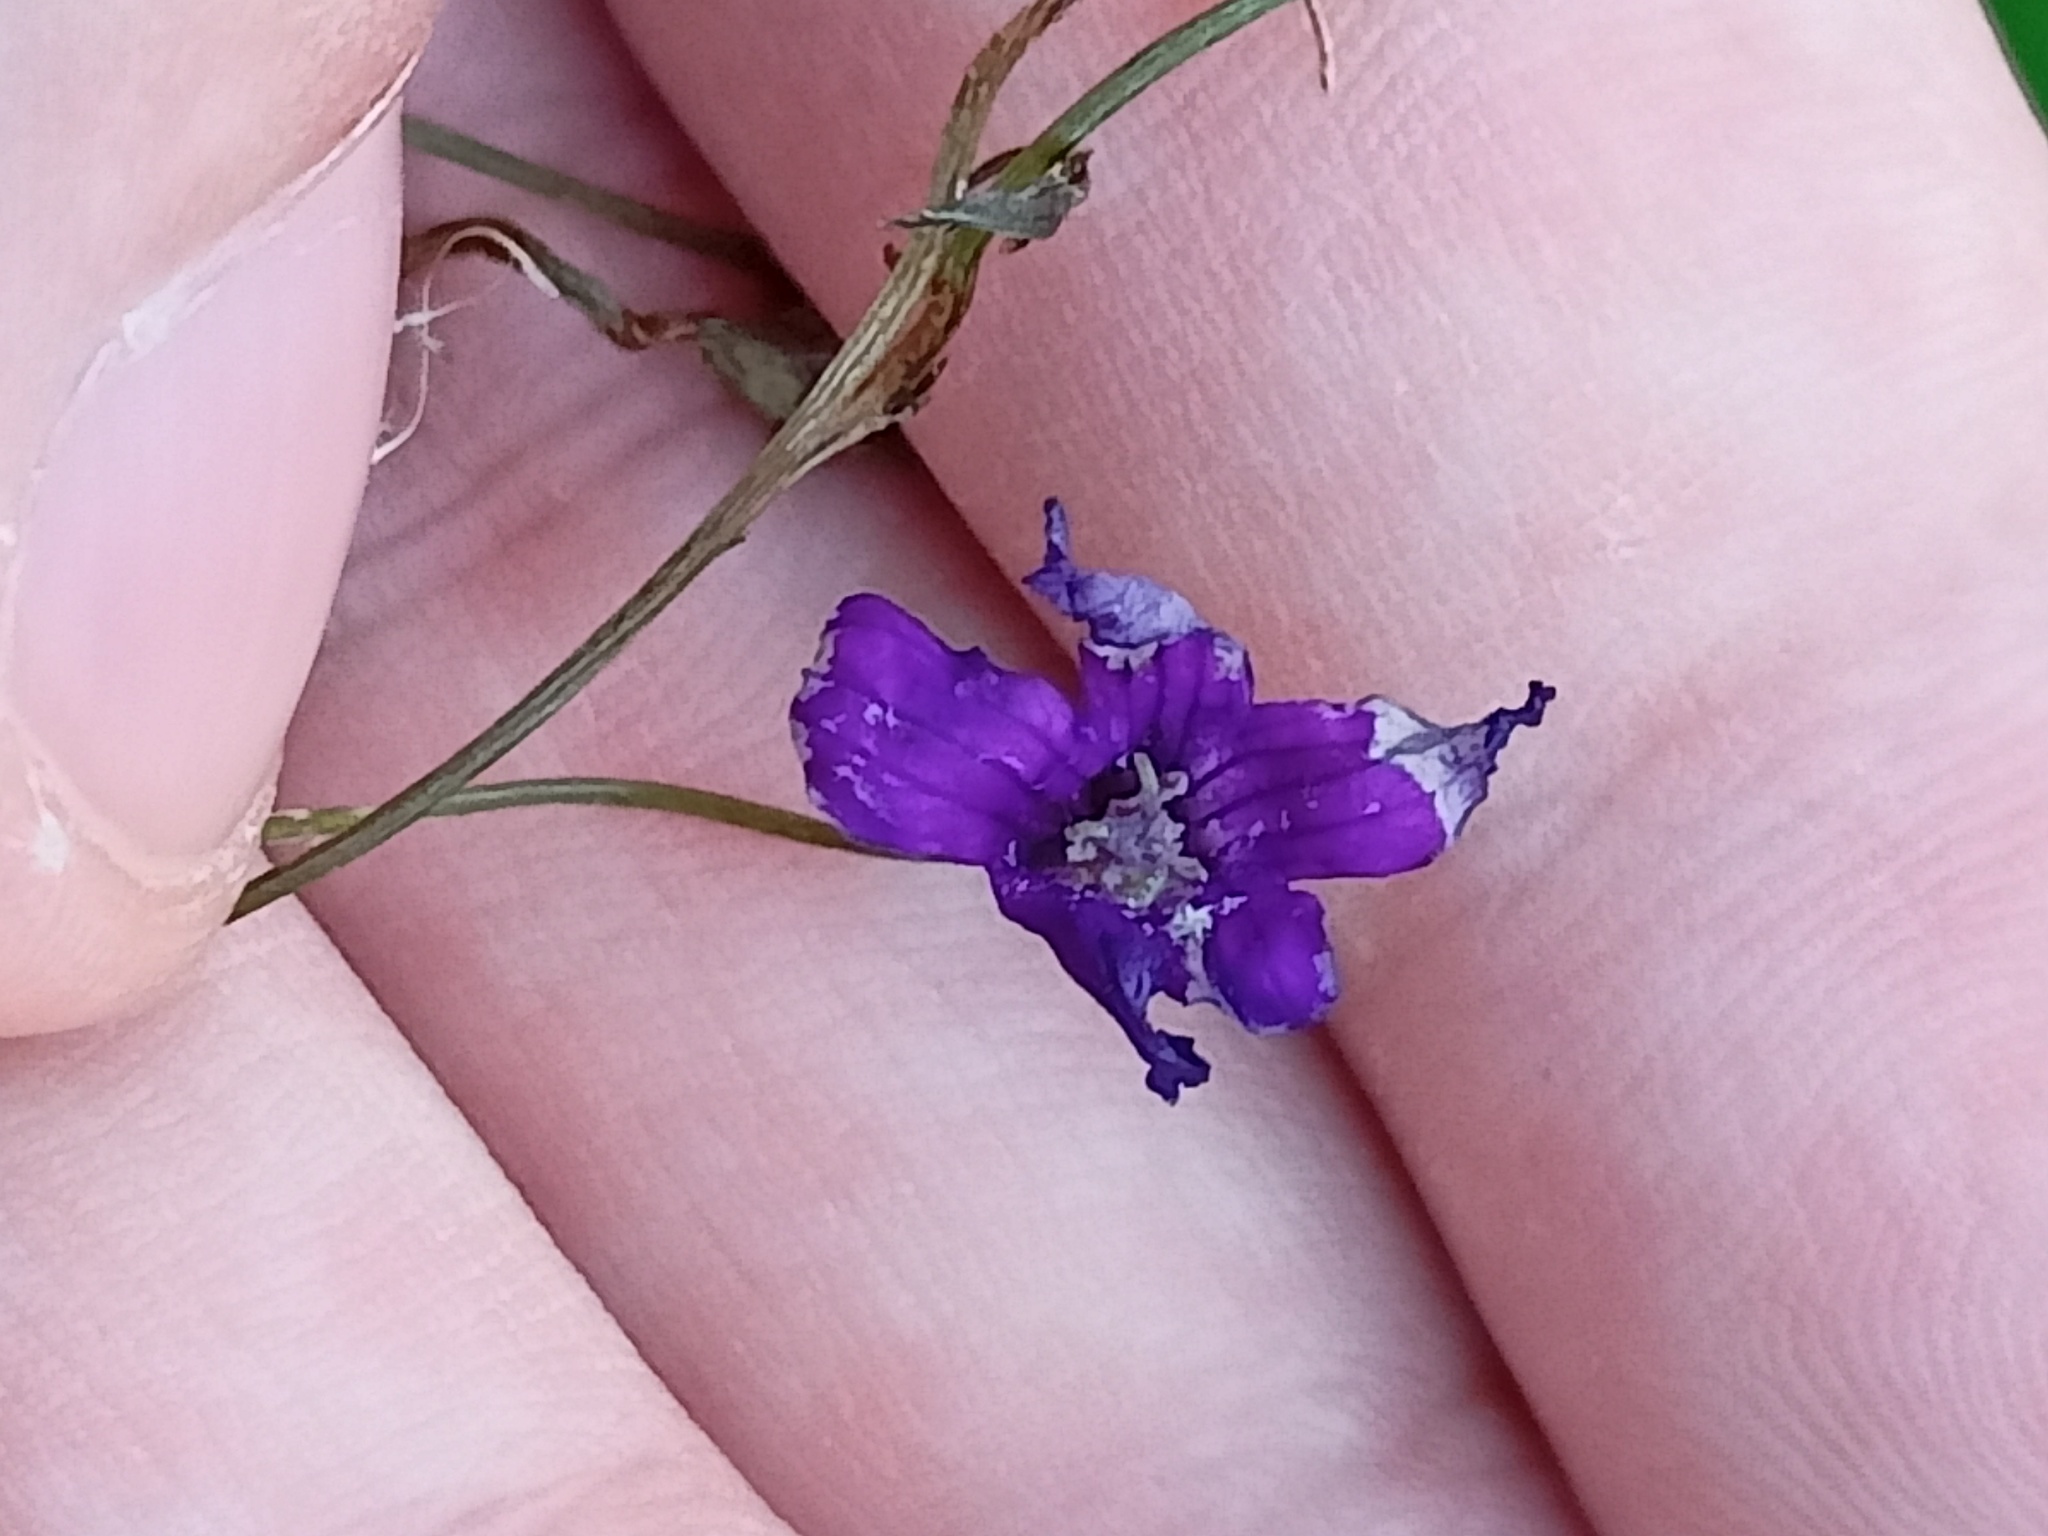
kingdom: Plantae
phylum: Tracheophyta
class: Magnoliopsida
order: Asterales
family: Campanulaceae
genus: Campanula
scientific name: Campanula patula
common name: Spreading bellflower
